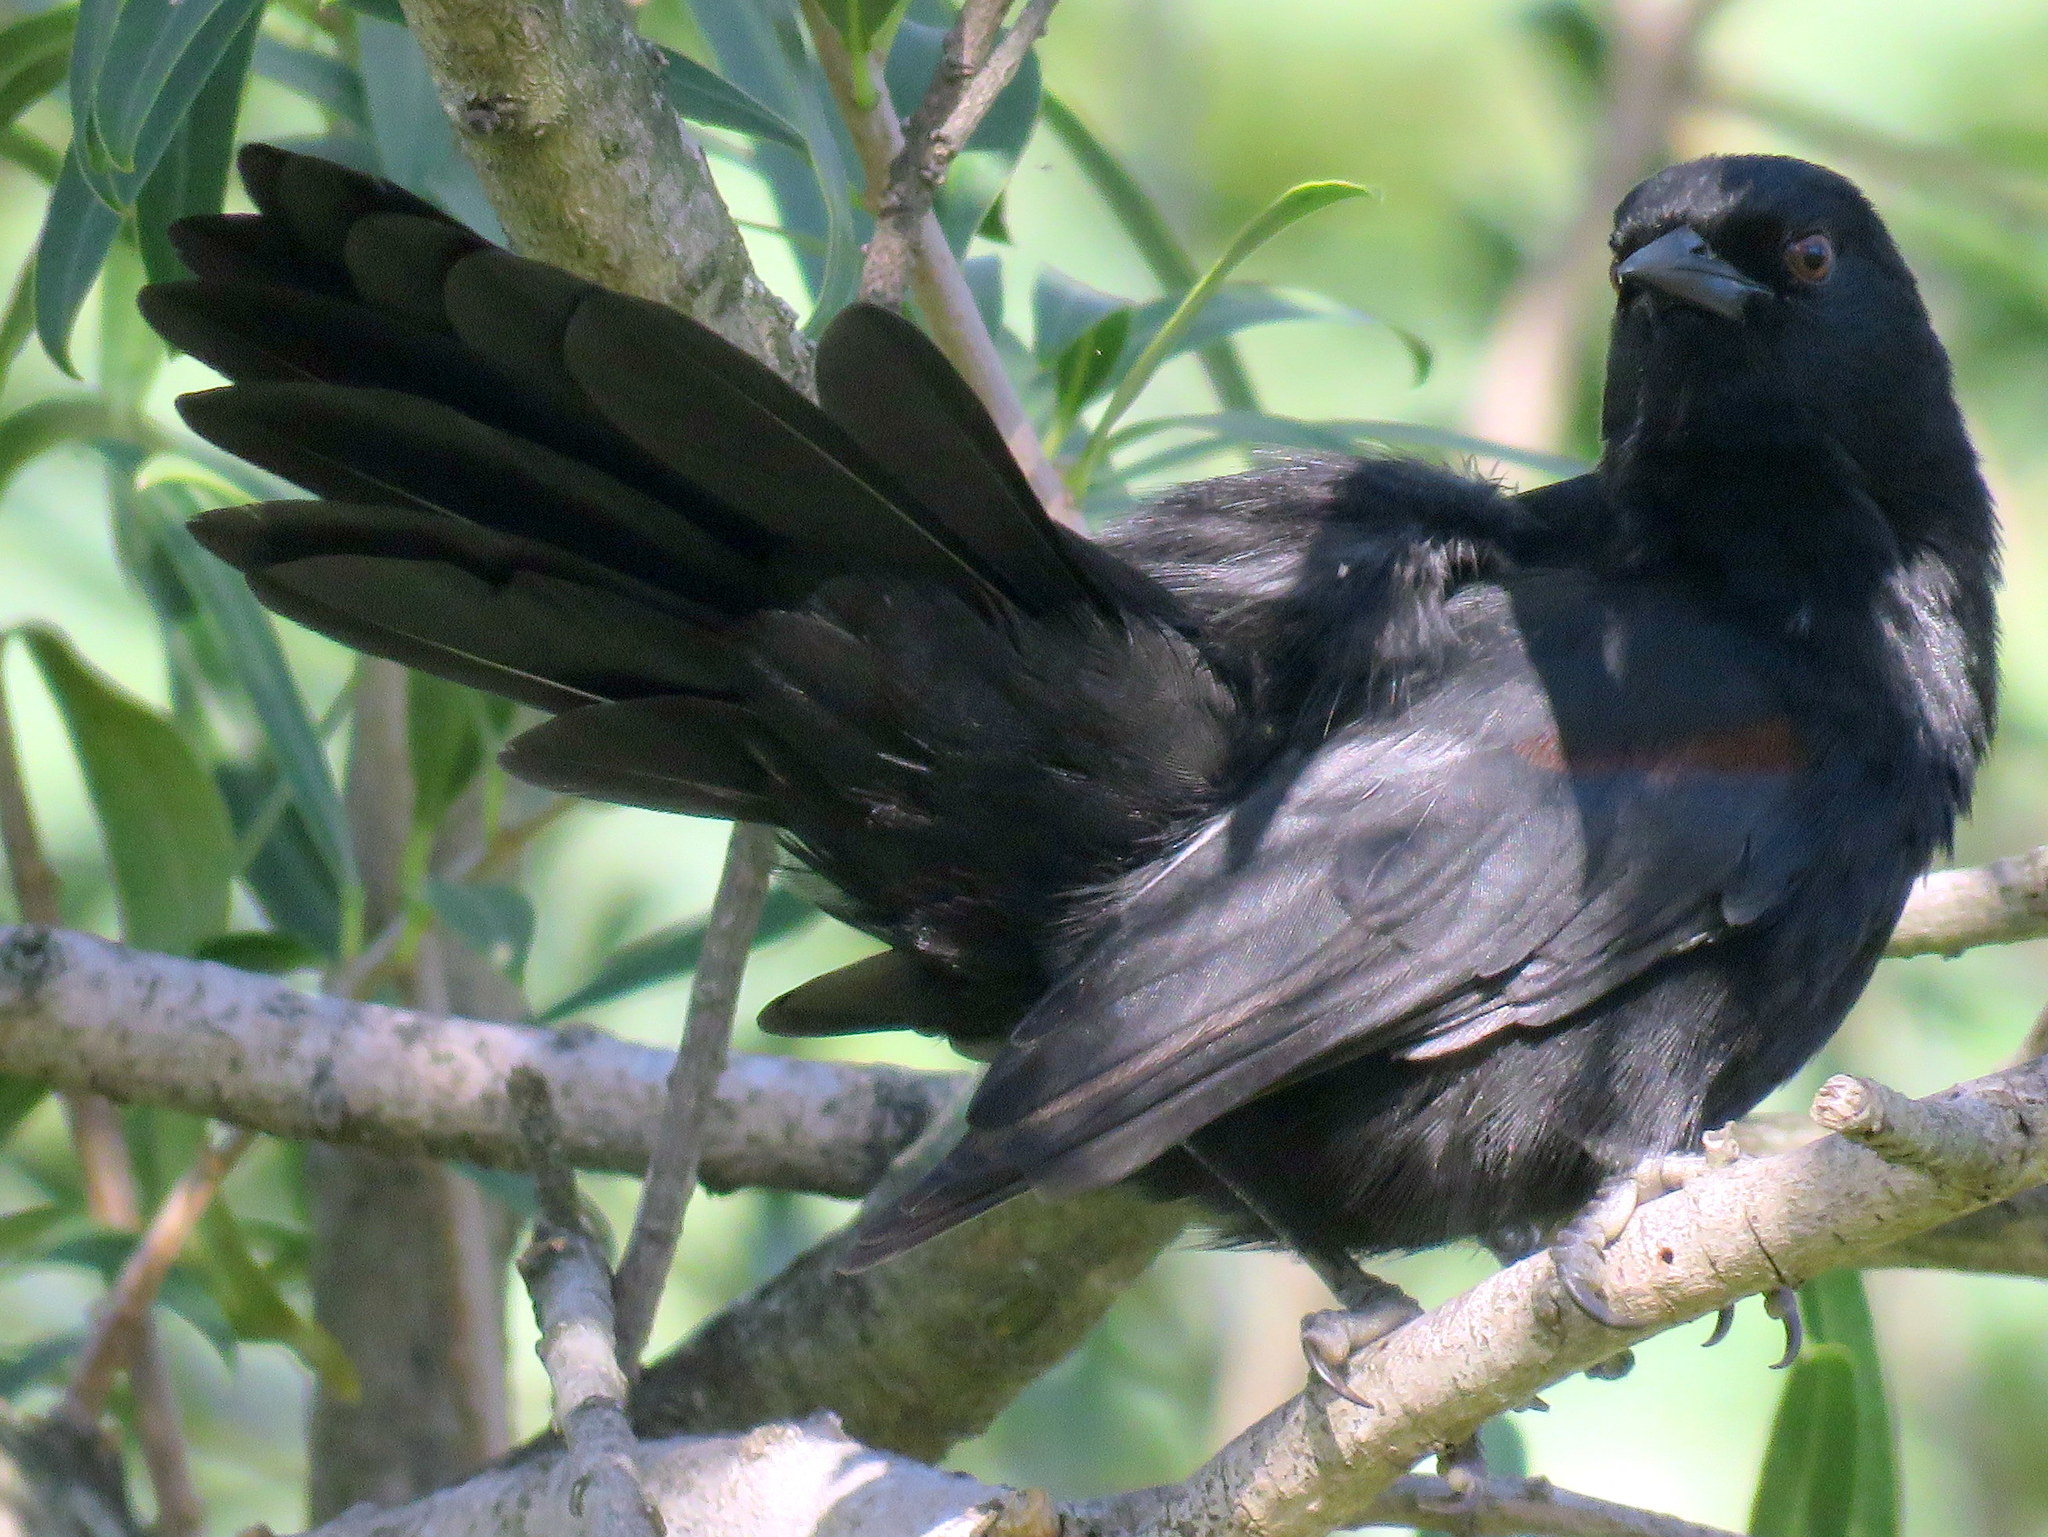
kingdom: Animalia
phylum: Chordata
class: Aves
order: Passeriformes
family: Icteridae
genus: Icterus
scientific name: Icterus cayanensis
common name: Epaulet oriole
